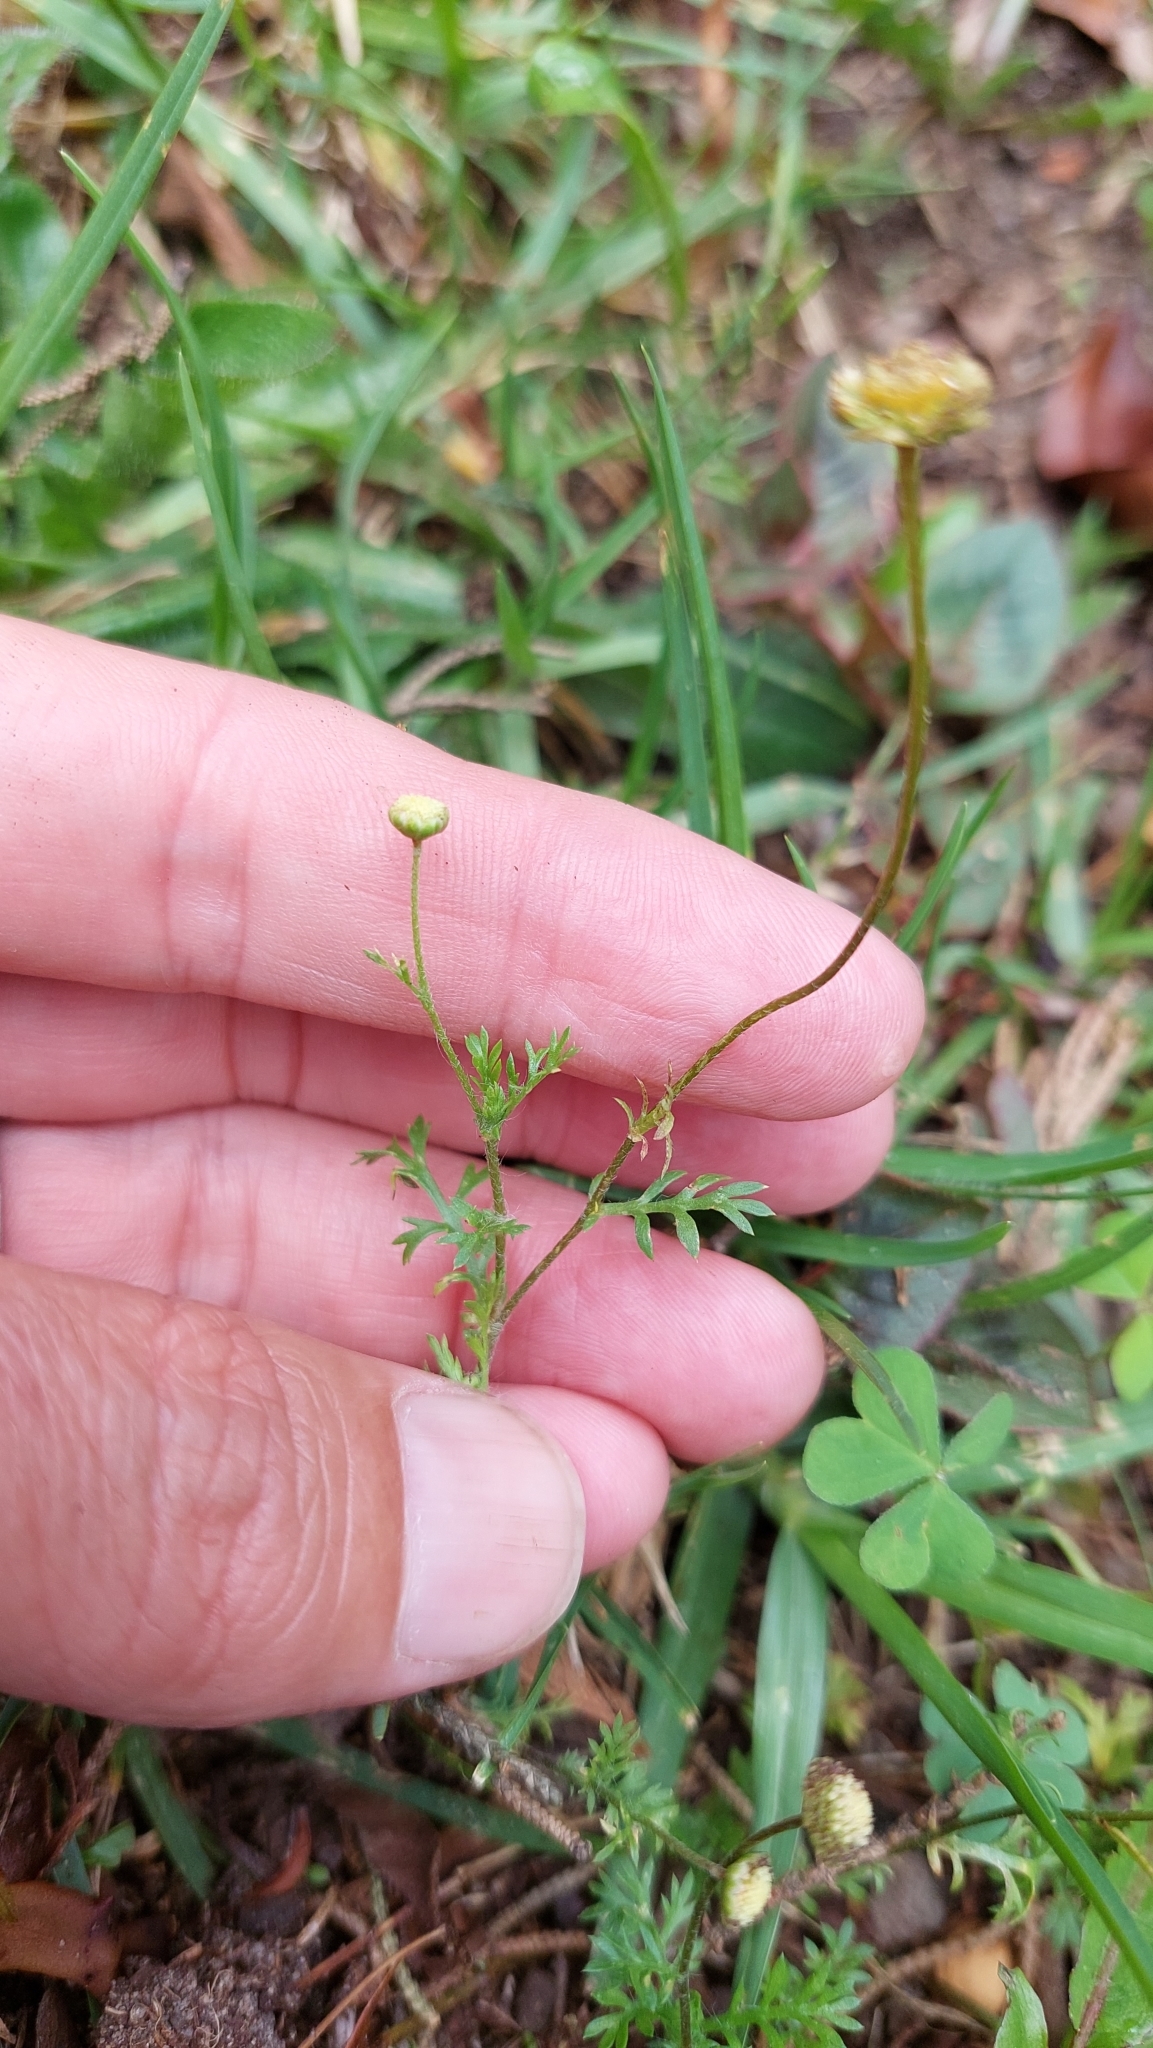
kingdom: Plantae
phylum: Tracheophyta
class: Magnoliopsida
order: Asterales
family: Asteraceae
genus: Cotula
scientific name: Cotula australis
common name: Australian waterbuttons
